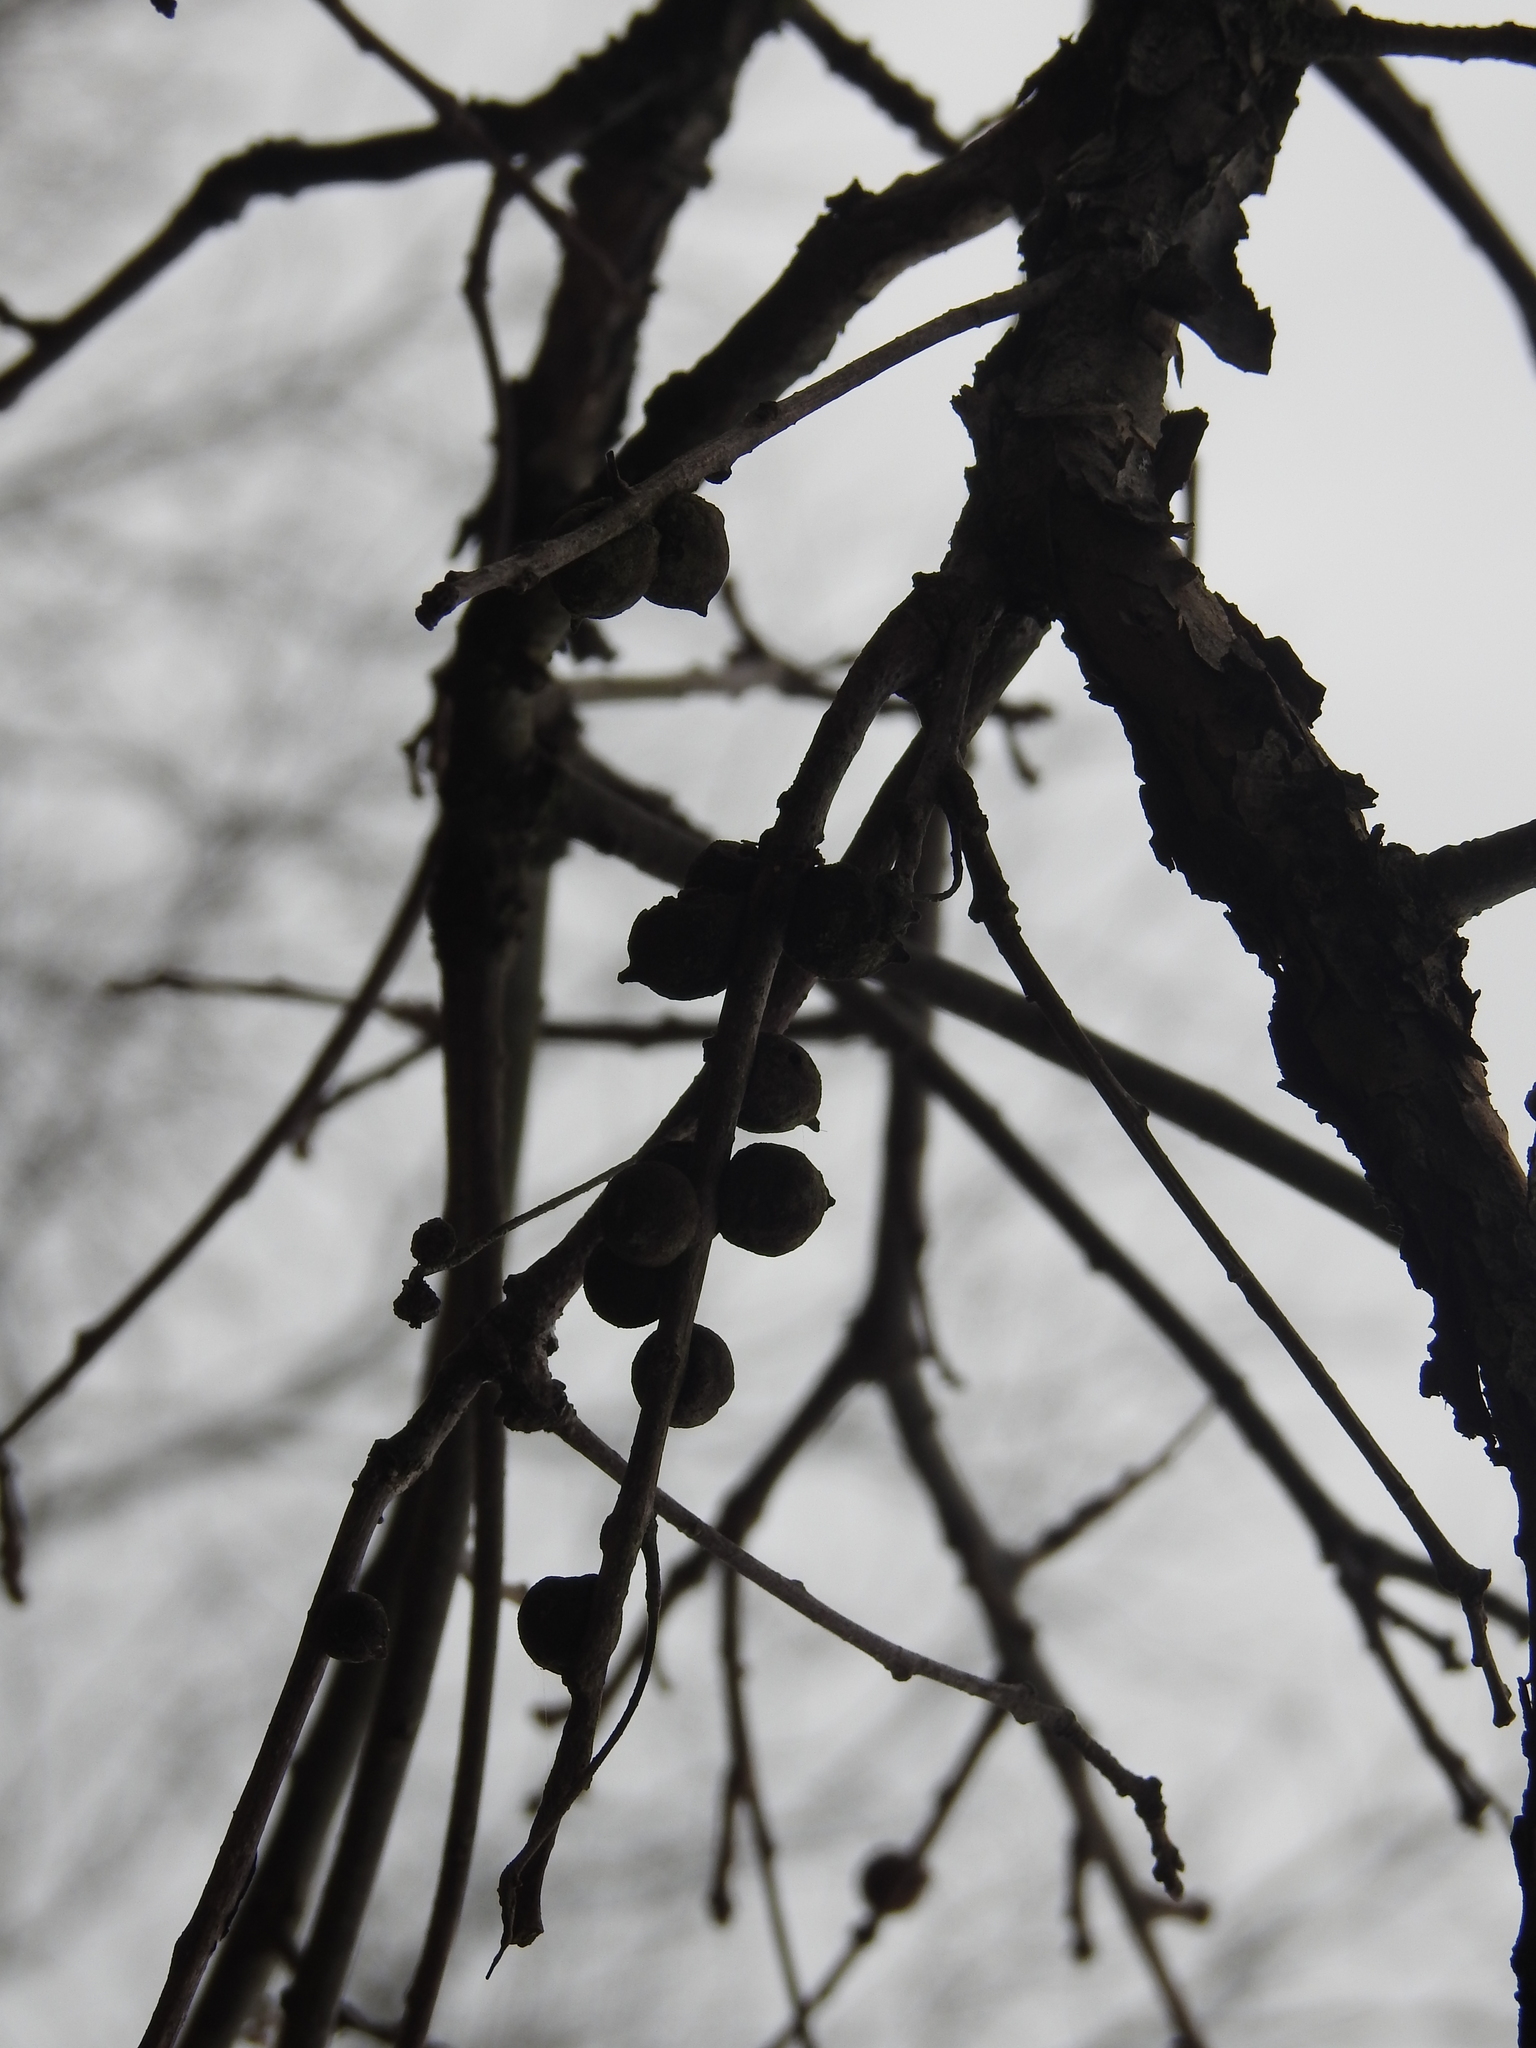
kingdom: Animalia
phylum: Arthropoda
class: Insecta
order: Hymenoptera
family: Cynipidae
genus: Disholcaspis
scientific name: Disholcaspis
